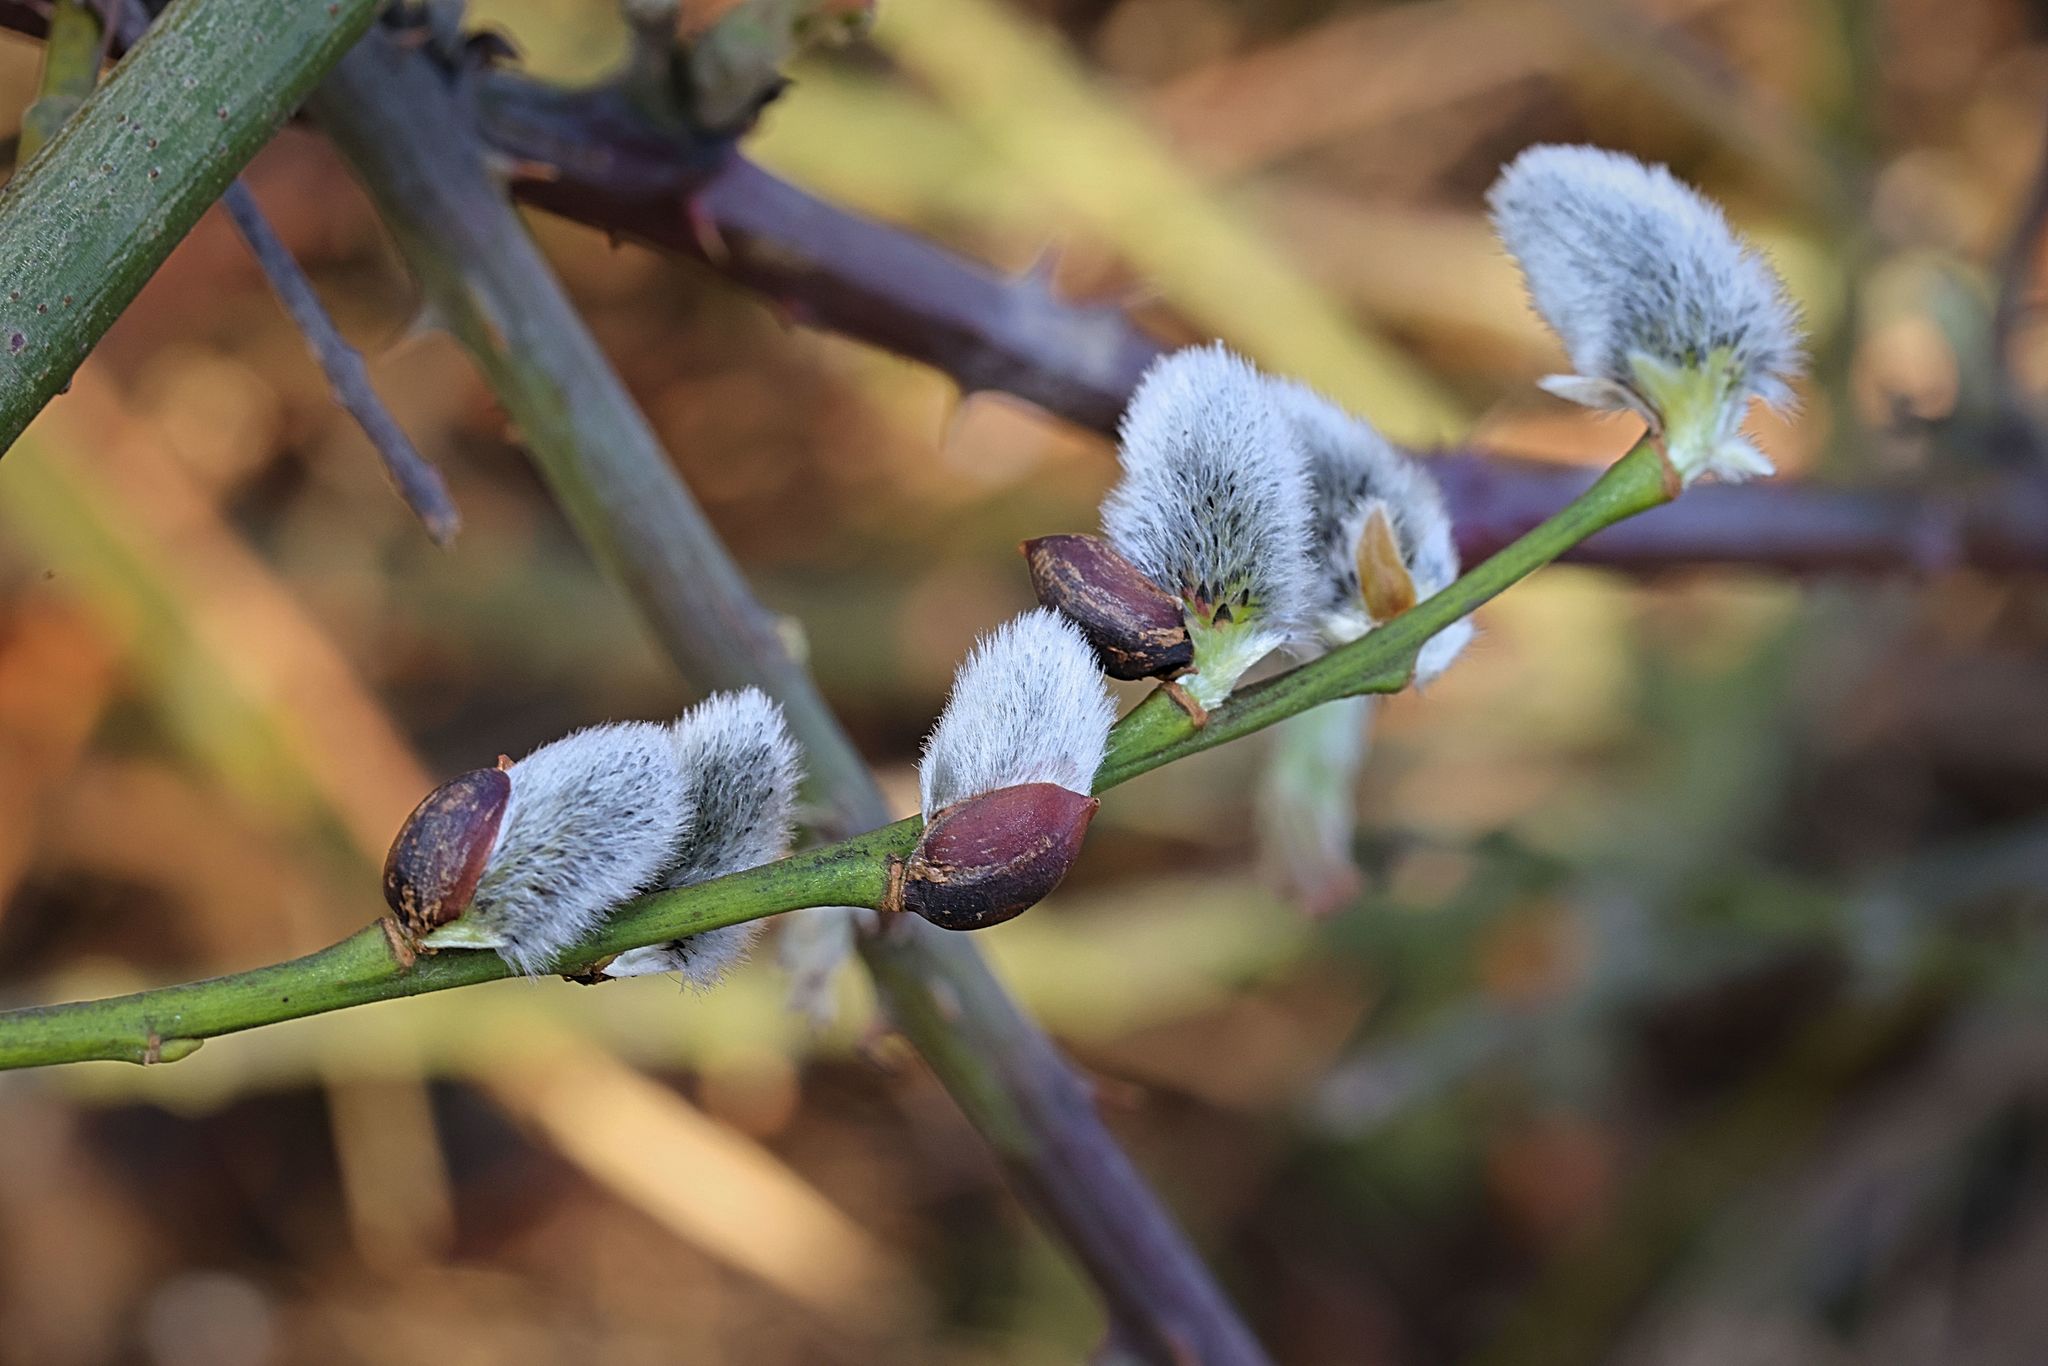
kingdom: Plantae
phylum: Tracheophyta
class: Magnoliopsida
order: Malpighiales
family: Salicaceae
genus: Salix
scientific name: Salix caprea
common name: Goat willow
